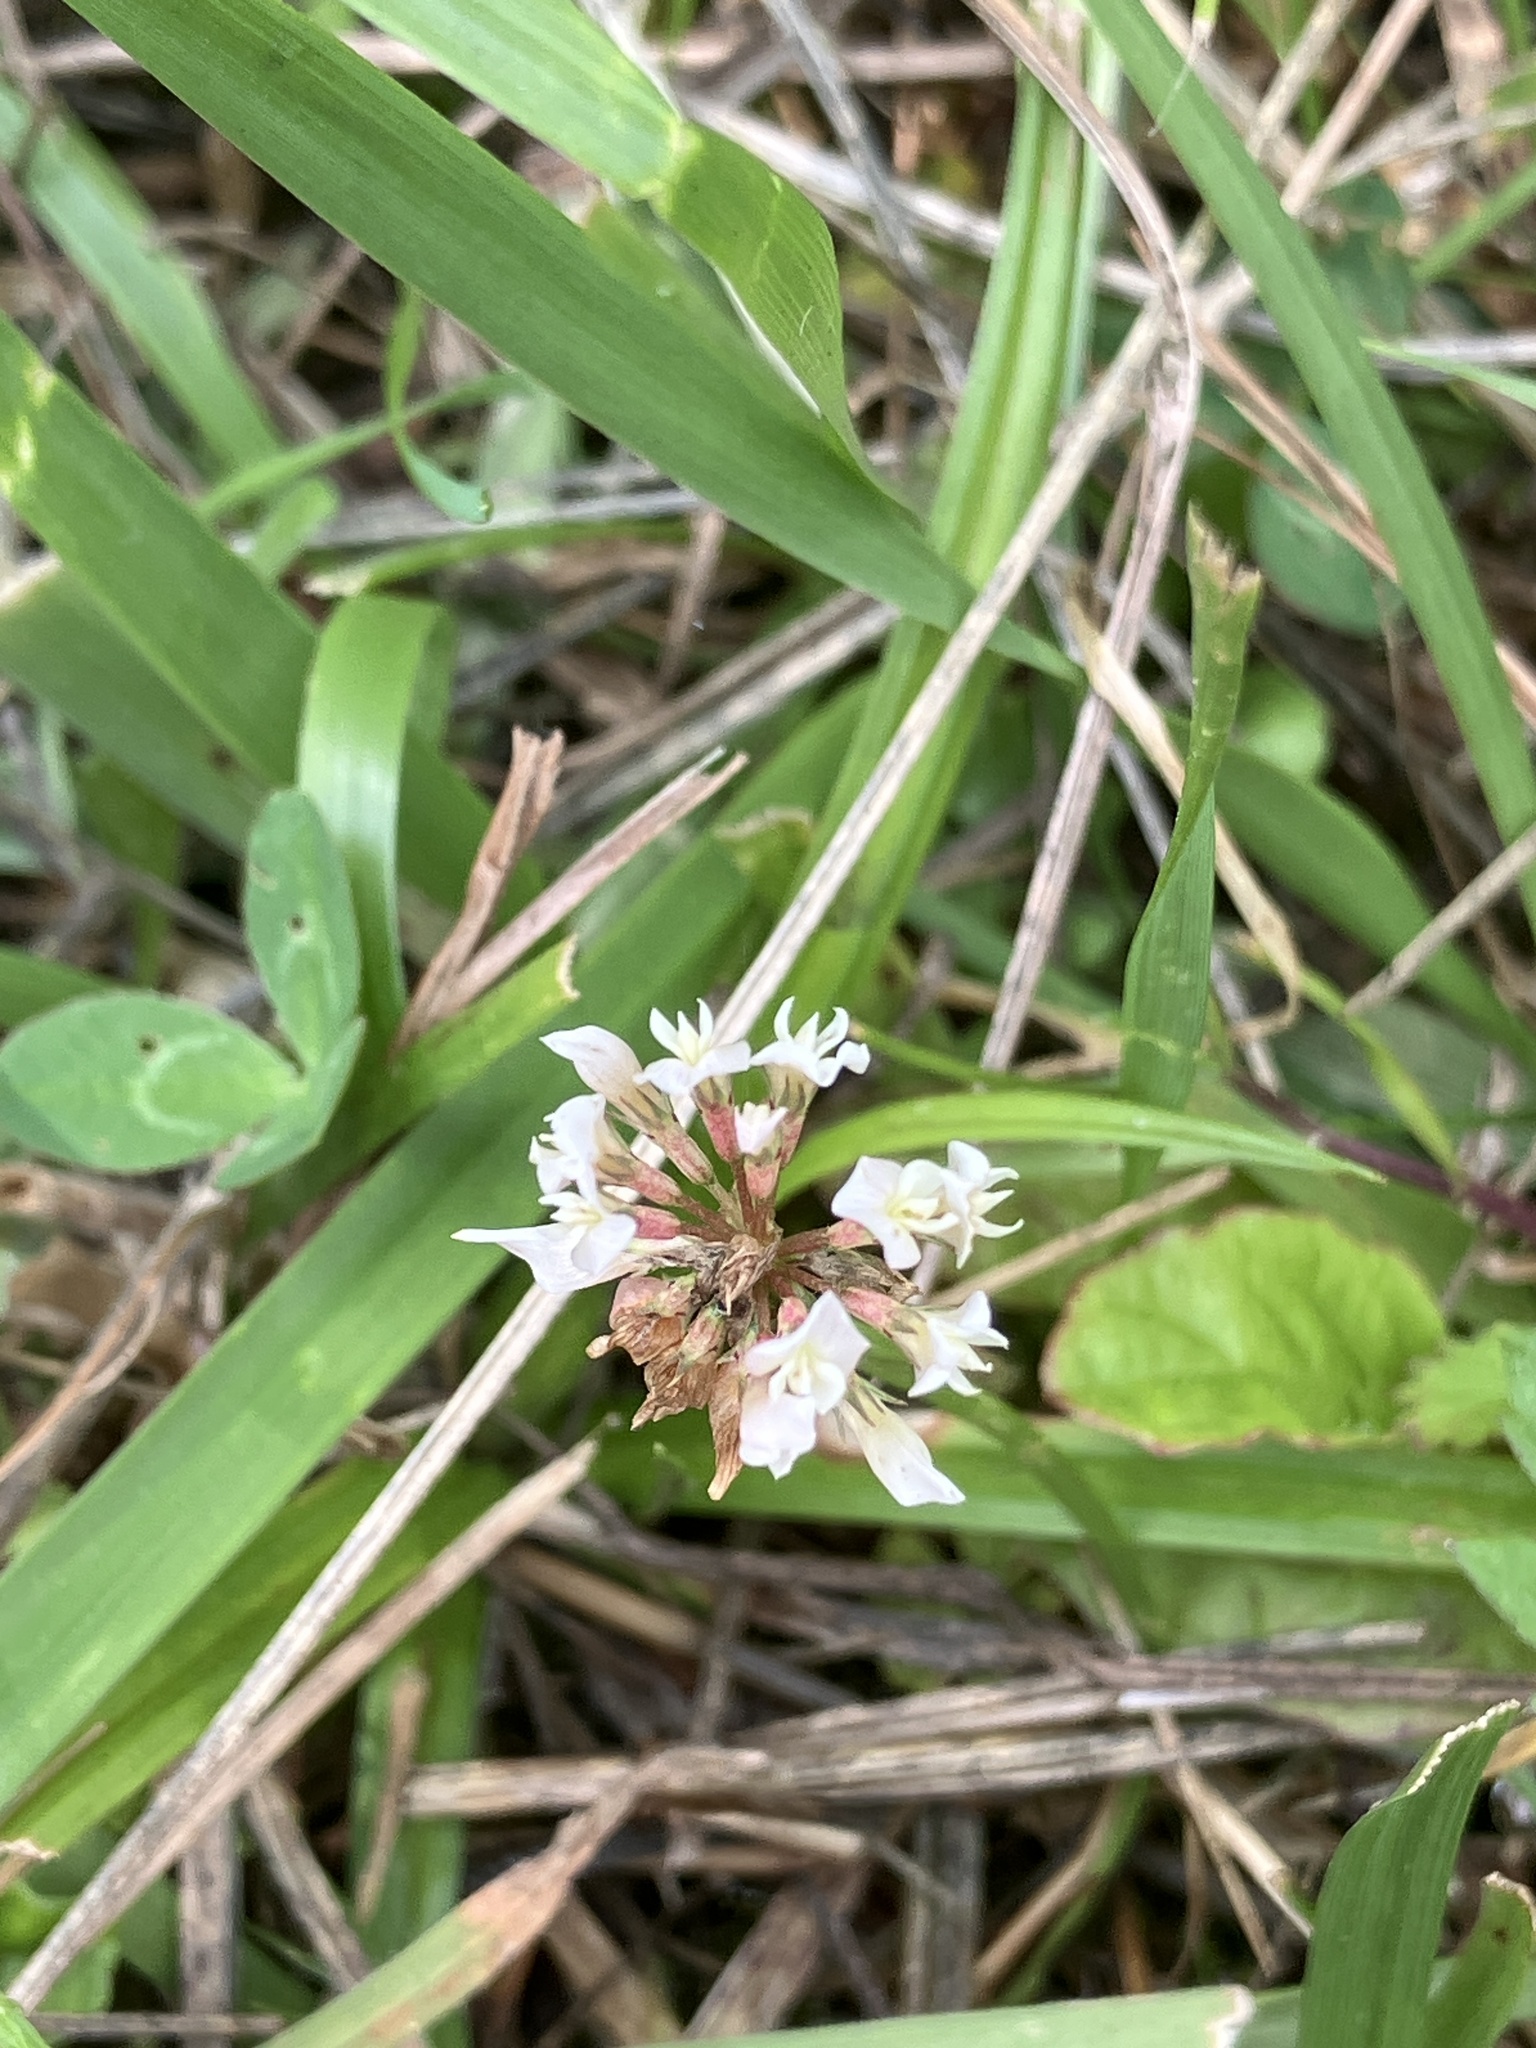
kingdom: Plantae
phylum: Tracheophyta
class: Magnoliopsida
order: Fabales
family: Fabaceae
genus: Trifolium
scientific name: Trifolium repens
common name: White clover
